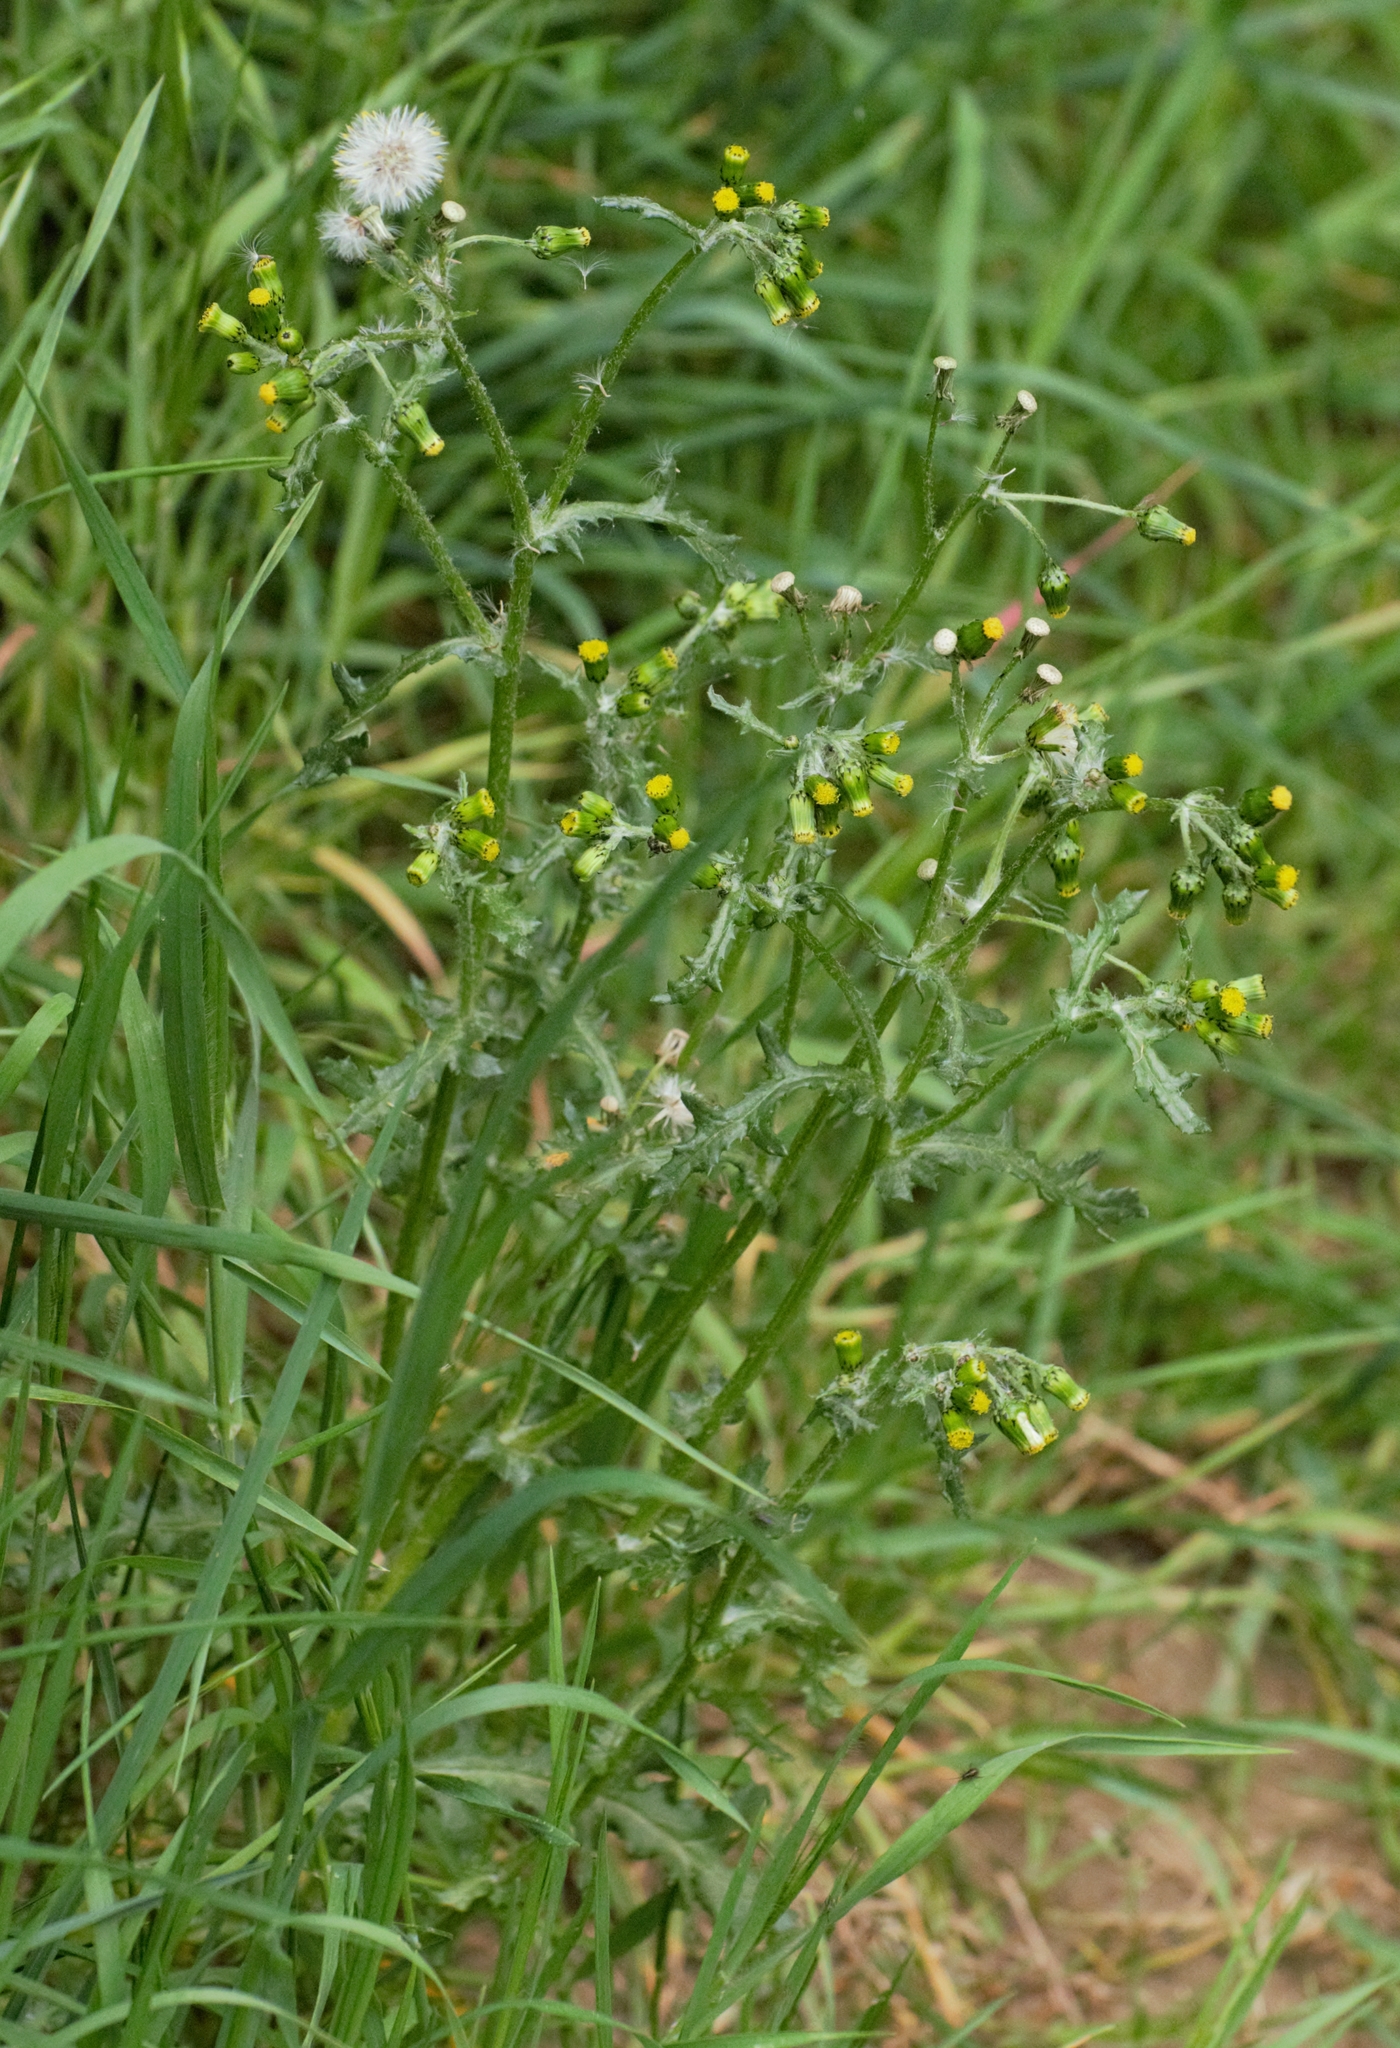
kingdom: Plantae
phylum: Tracheophyta
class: Magnoliopsida
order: Asterales
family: Asteraceae
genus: Senecio
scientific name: Senecio vulgaris
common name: Old-man-in-the-spring
